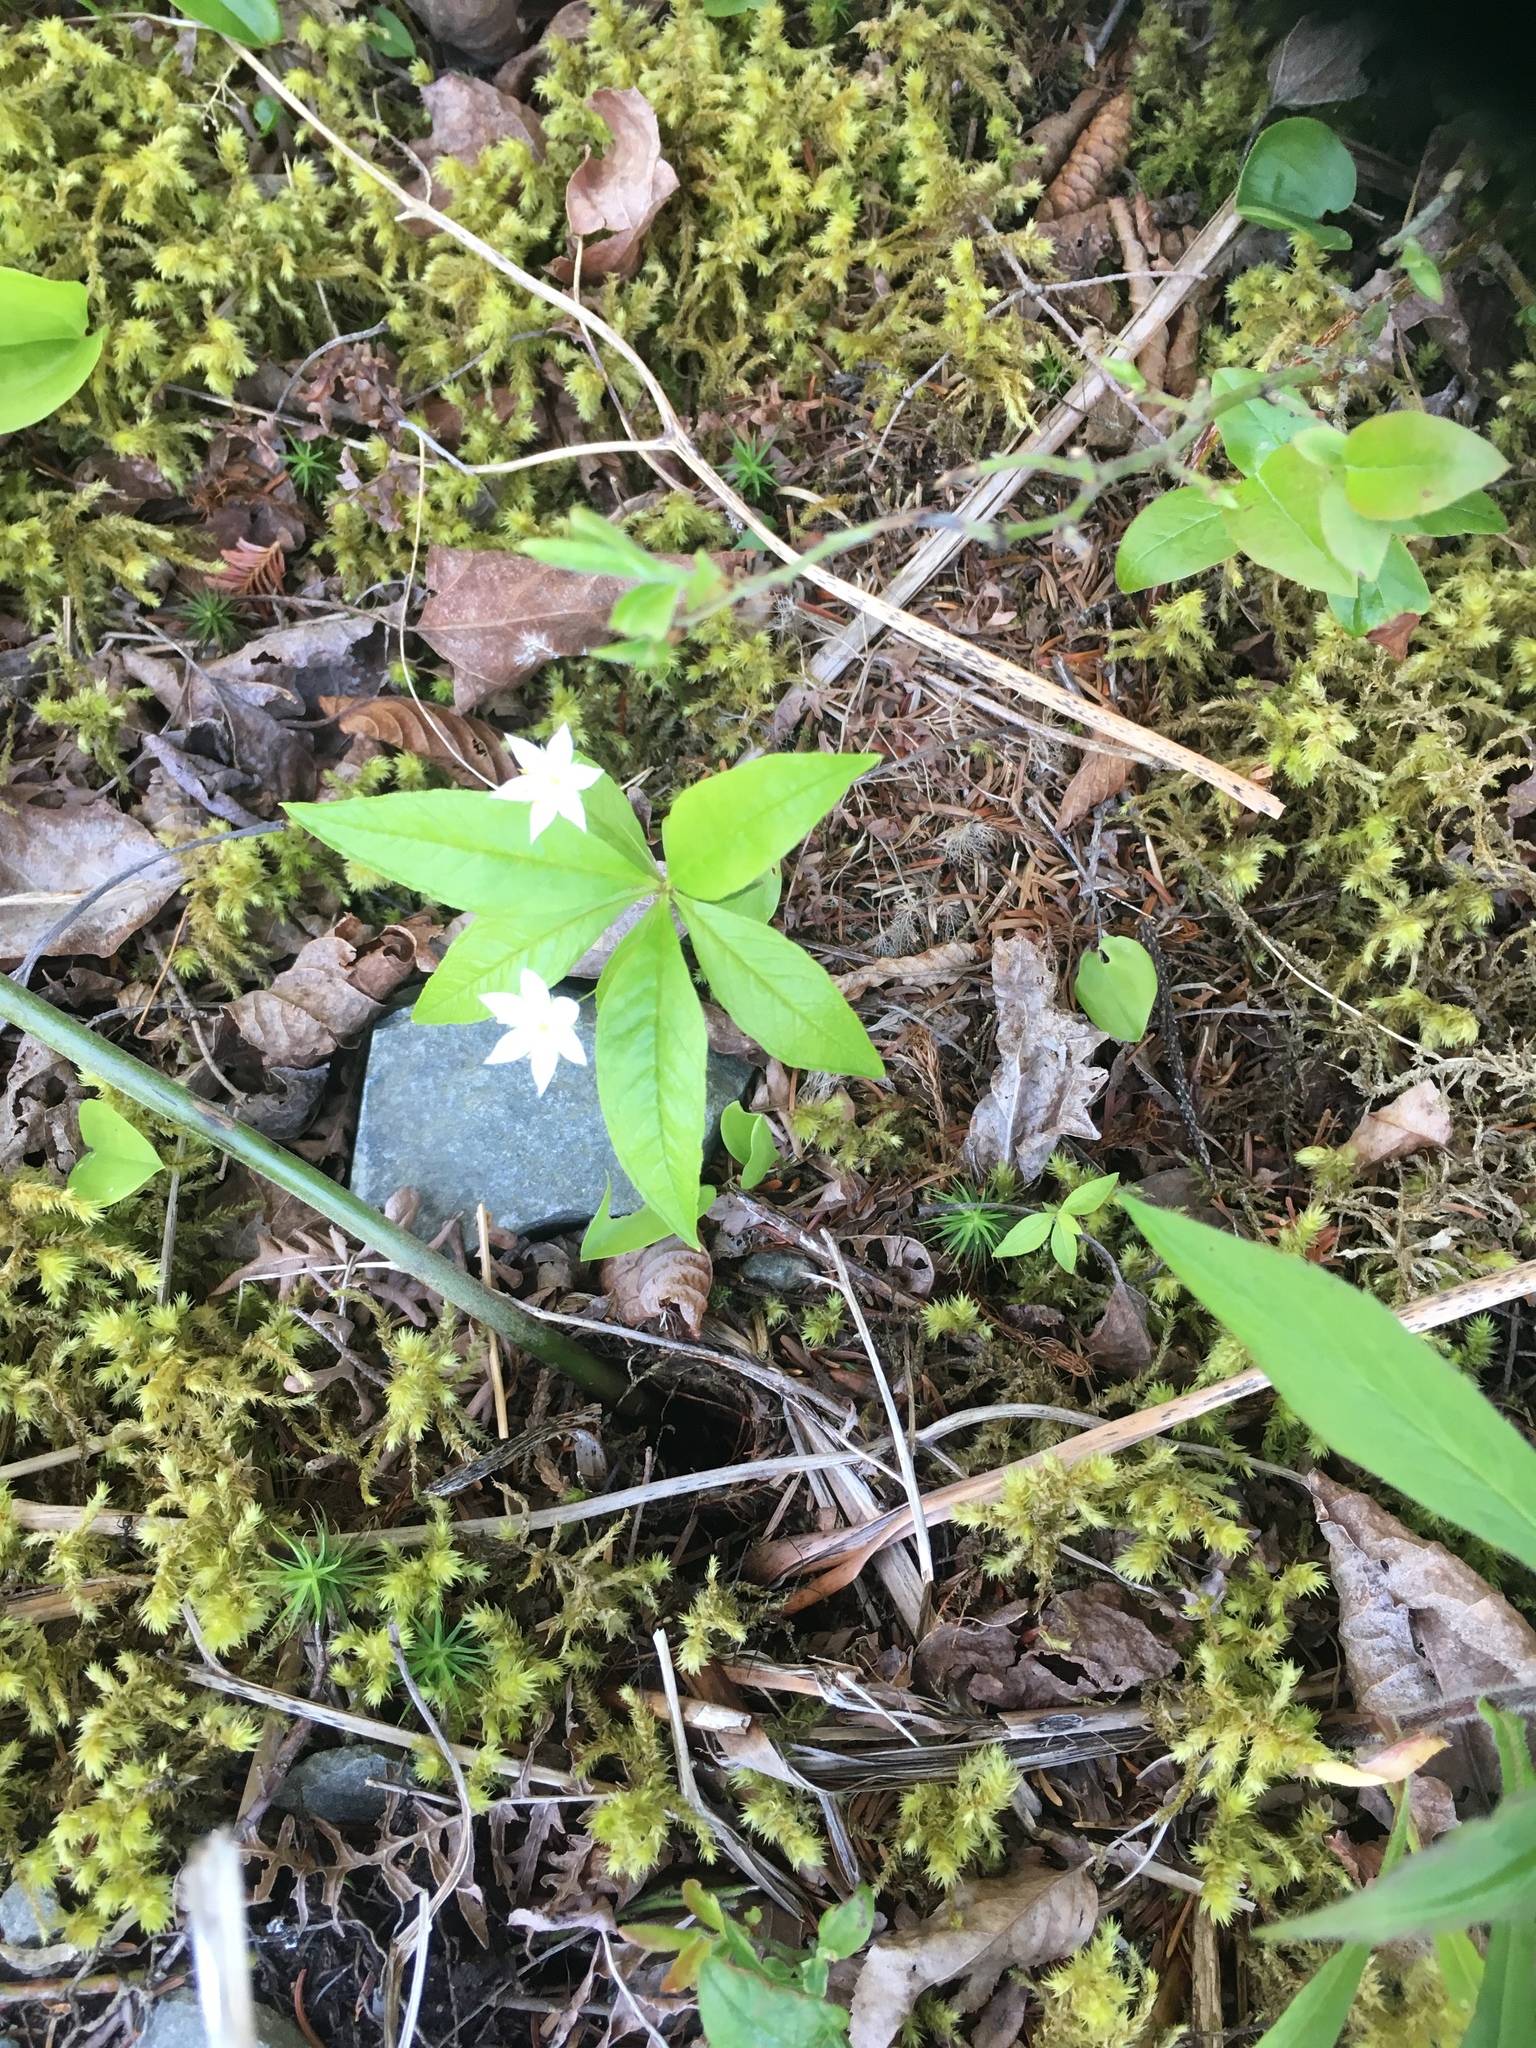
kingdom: Plantae
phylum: Tracheophyta
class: Magnoliopsida
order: Ericales
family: Primulaceae
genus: Lysimachia
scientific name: Lysimachia borealis
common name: American starflower
